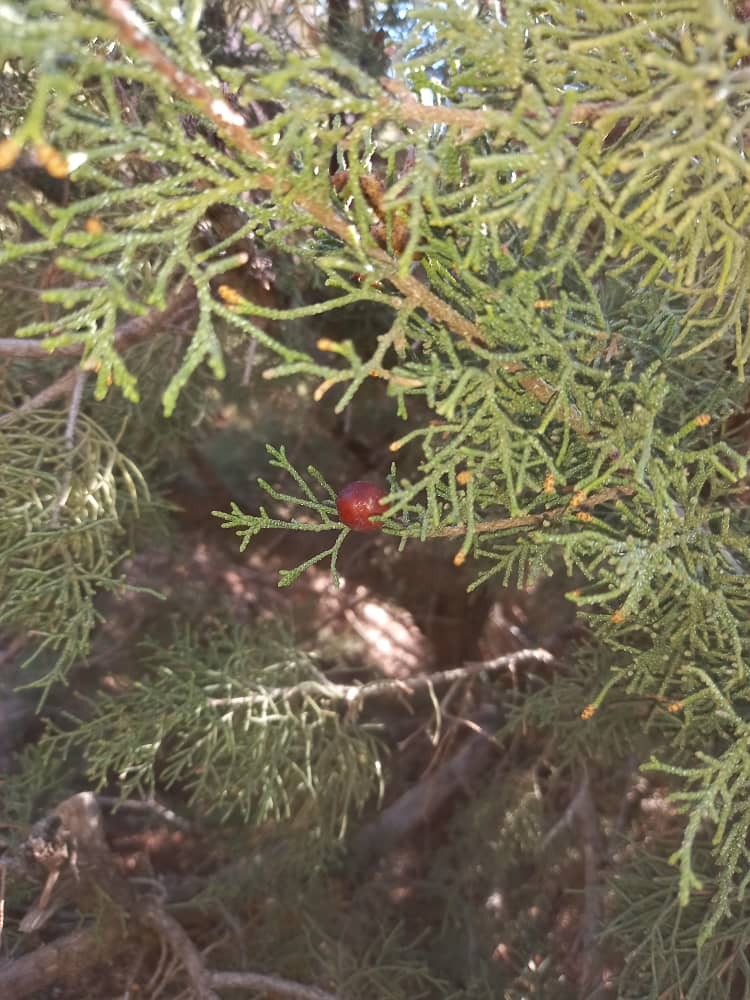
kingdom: Plantae
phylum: Tracheophyta
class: Pinopsida
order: Pinales
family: Cupressaceae
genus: Juniperus
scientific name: Juniperus phoenicea
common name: Phoenician juniper
